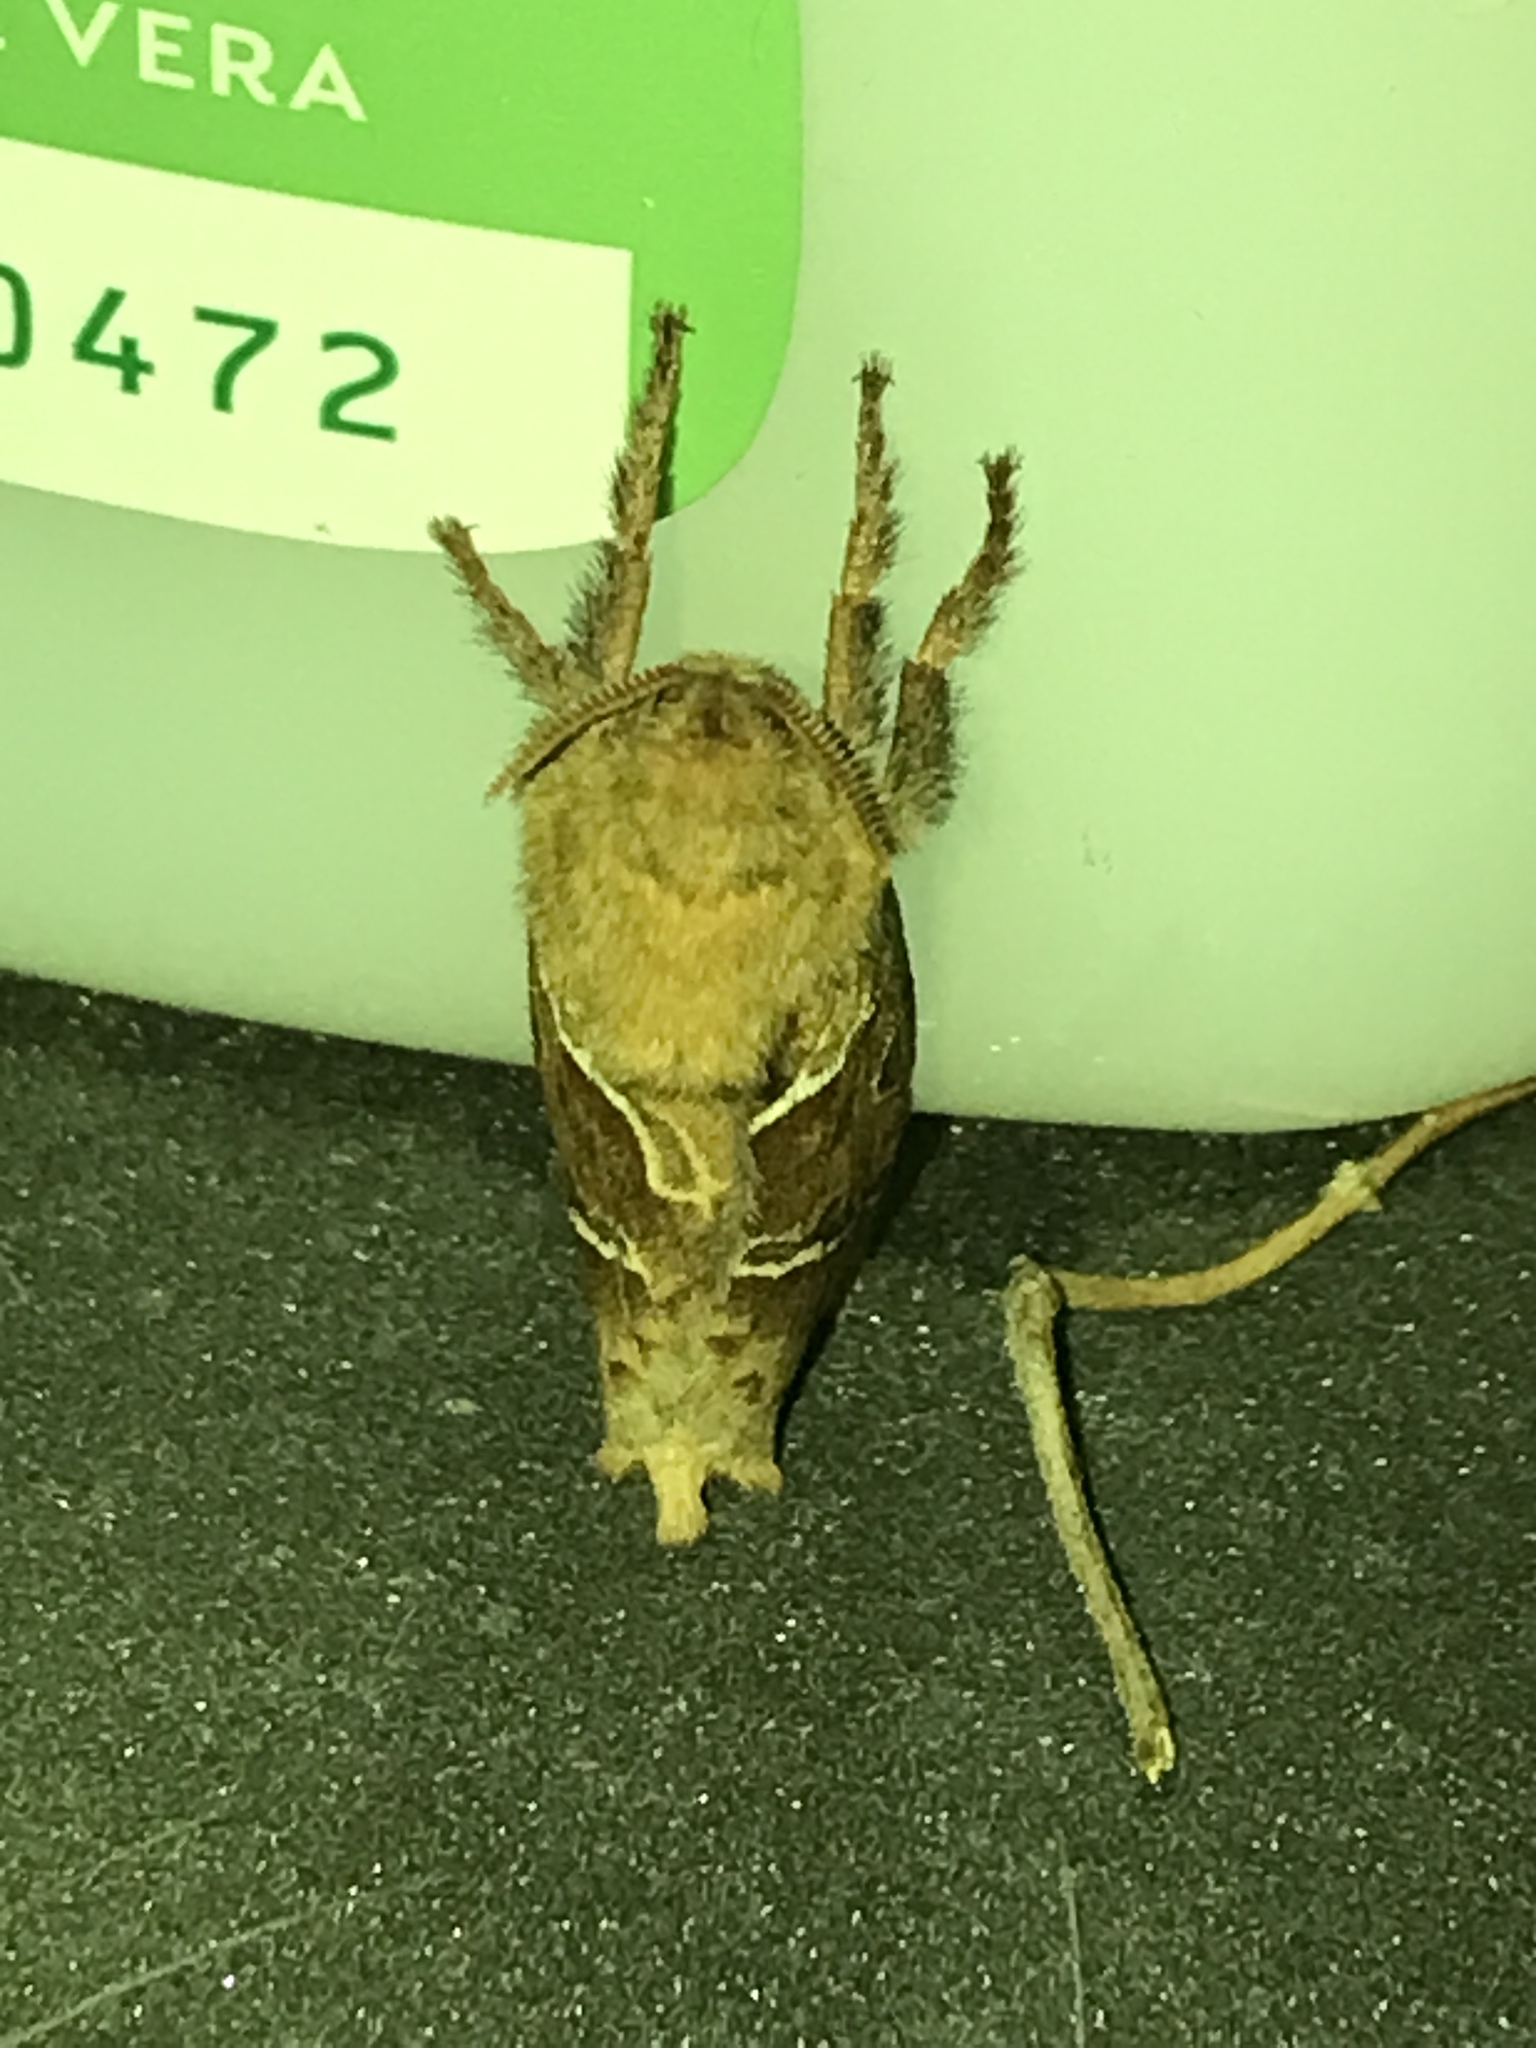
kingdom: Animalia
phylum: Arthropoda
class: Insecta
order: Lepidoptera
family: Hepialidae
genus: Triodia
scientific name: Triodia sylvina
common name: Orange swift
